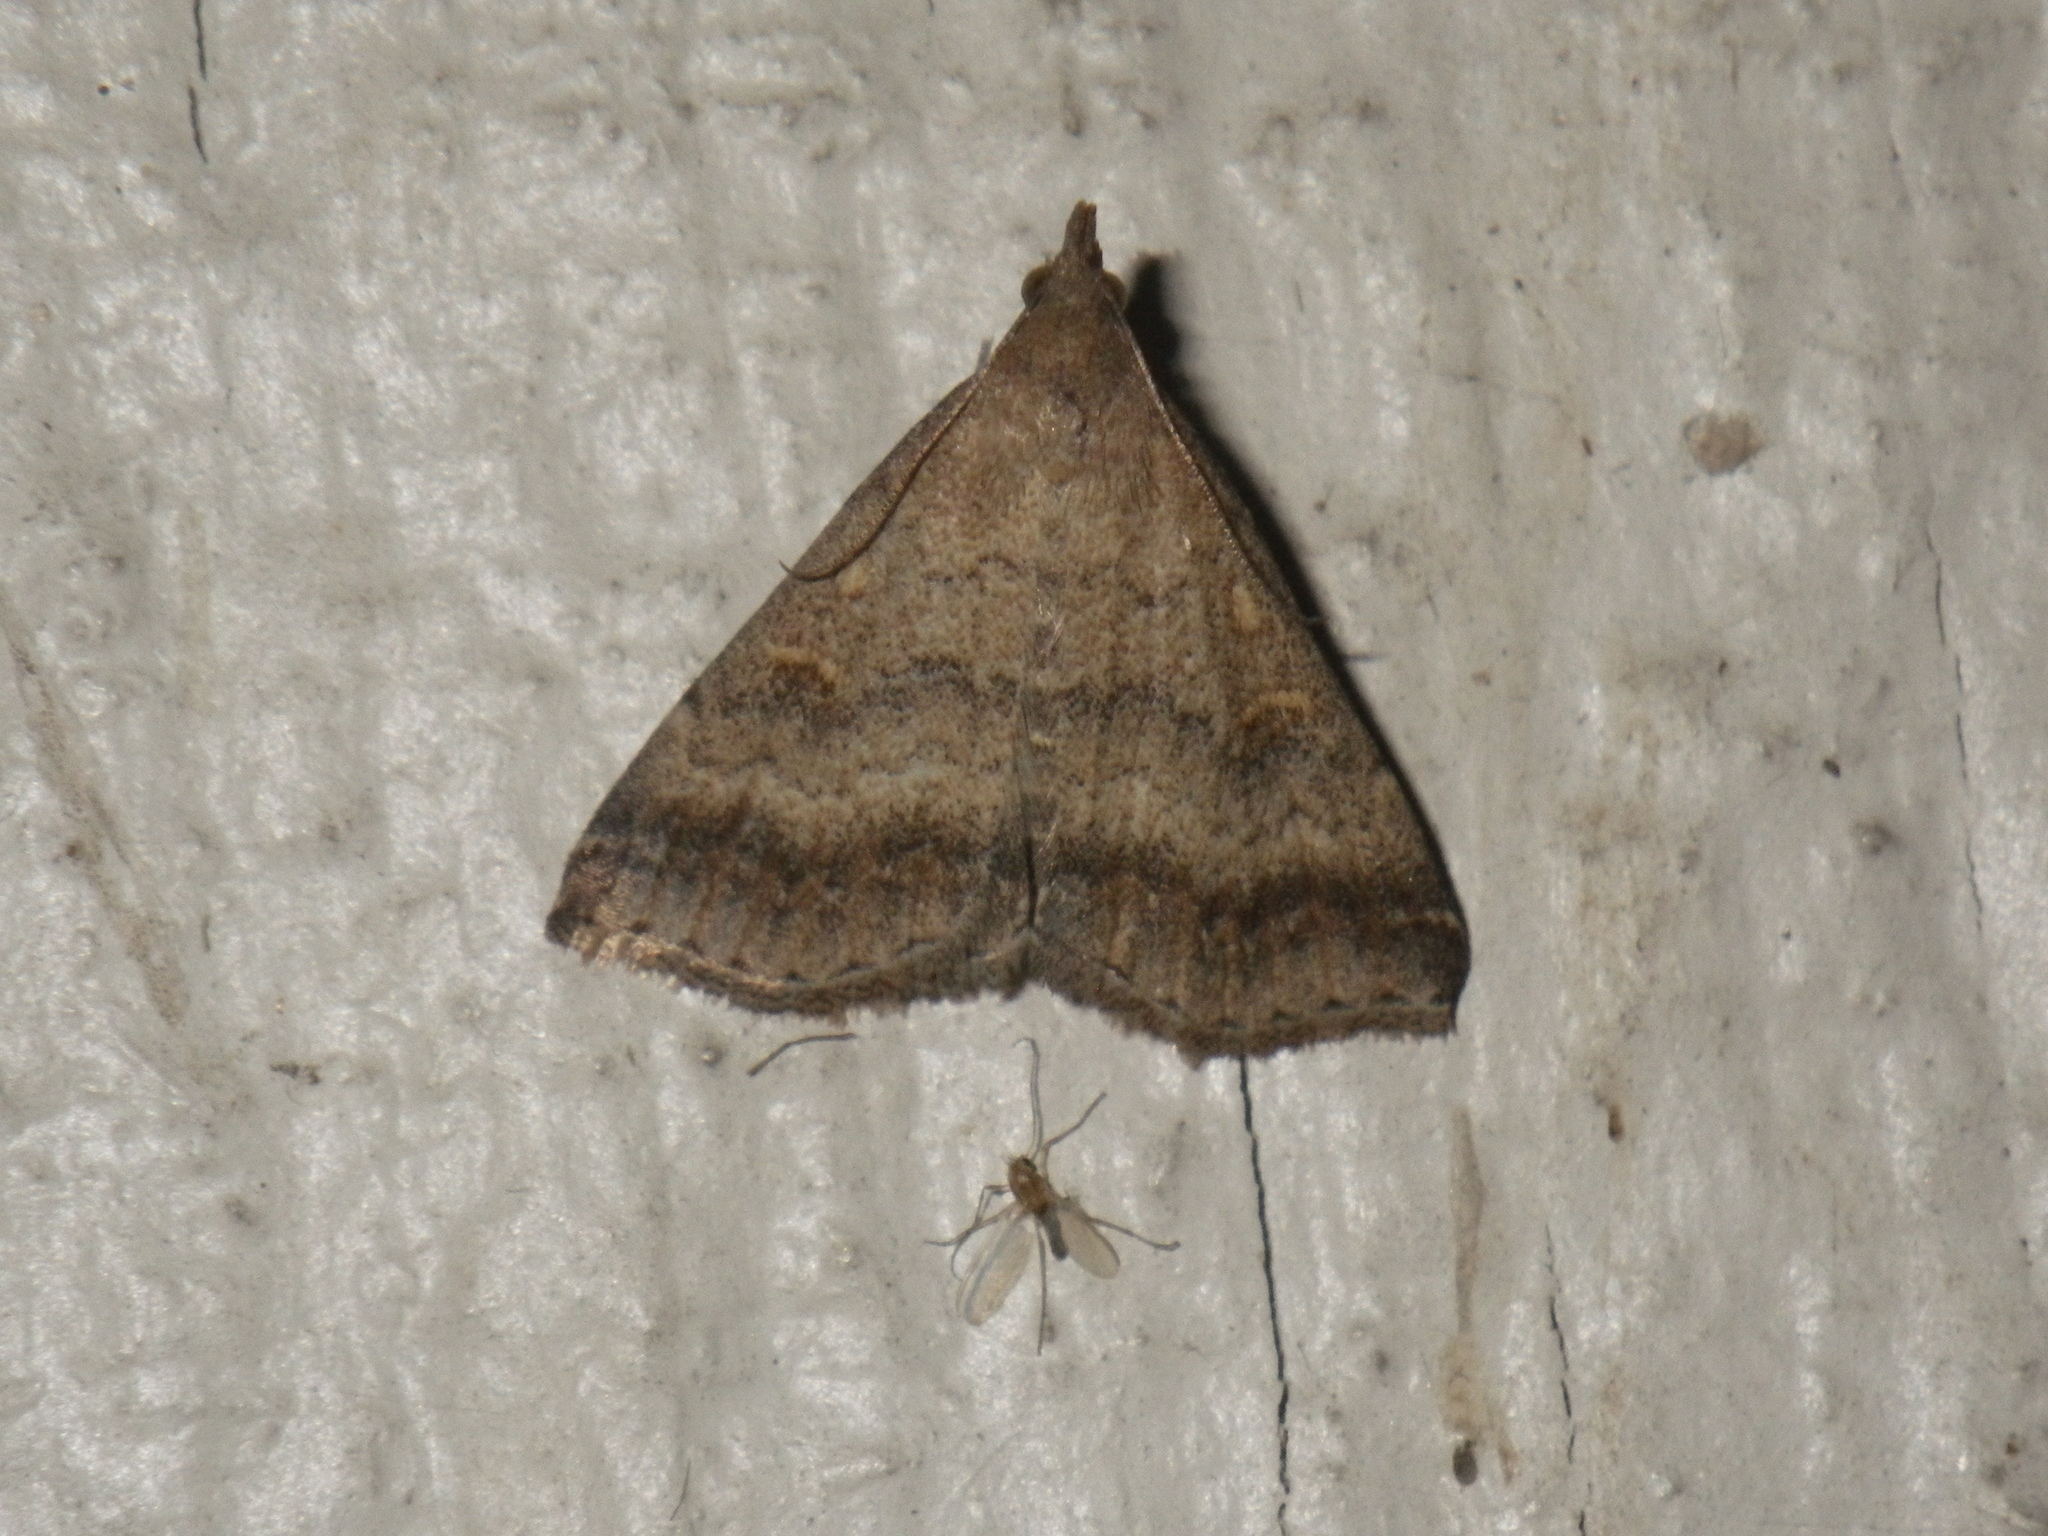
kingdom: Animalia
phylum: Arthropoda
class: Insecta
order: Lepidoptera
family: Erebidae
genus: Tetanolita
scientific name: Tetanolita palligera
